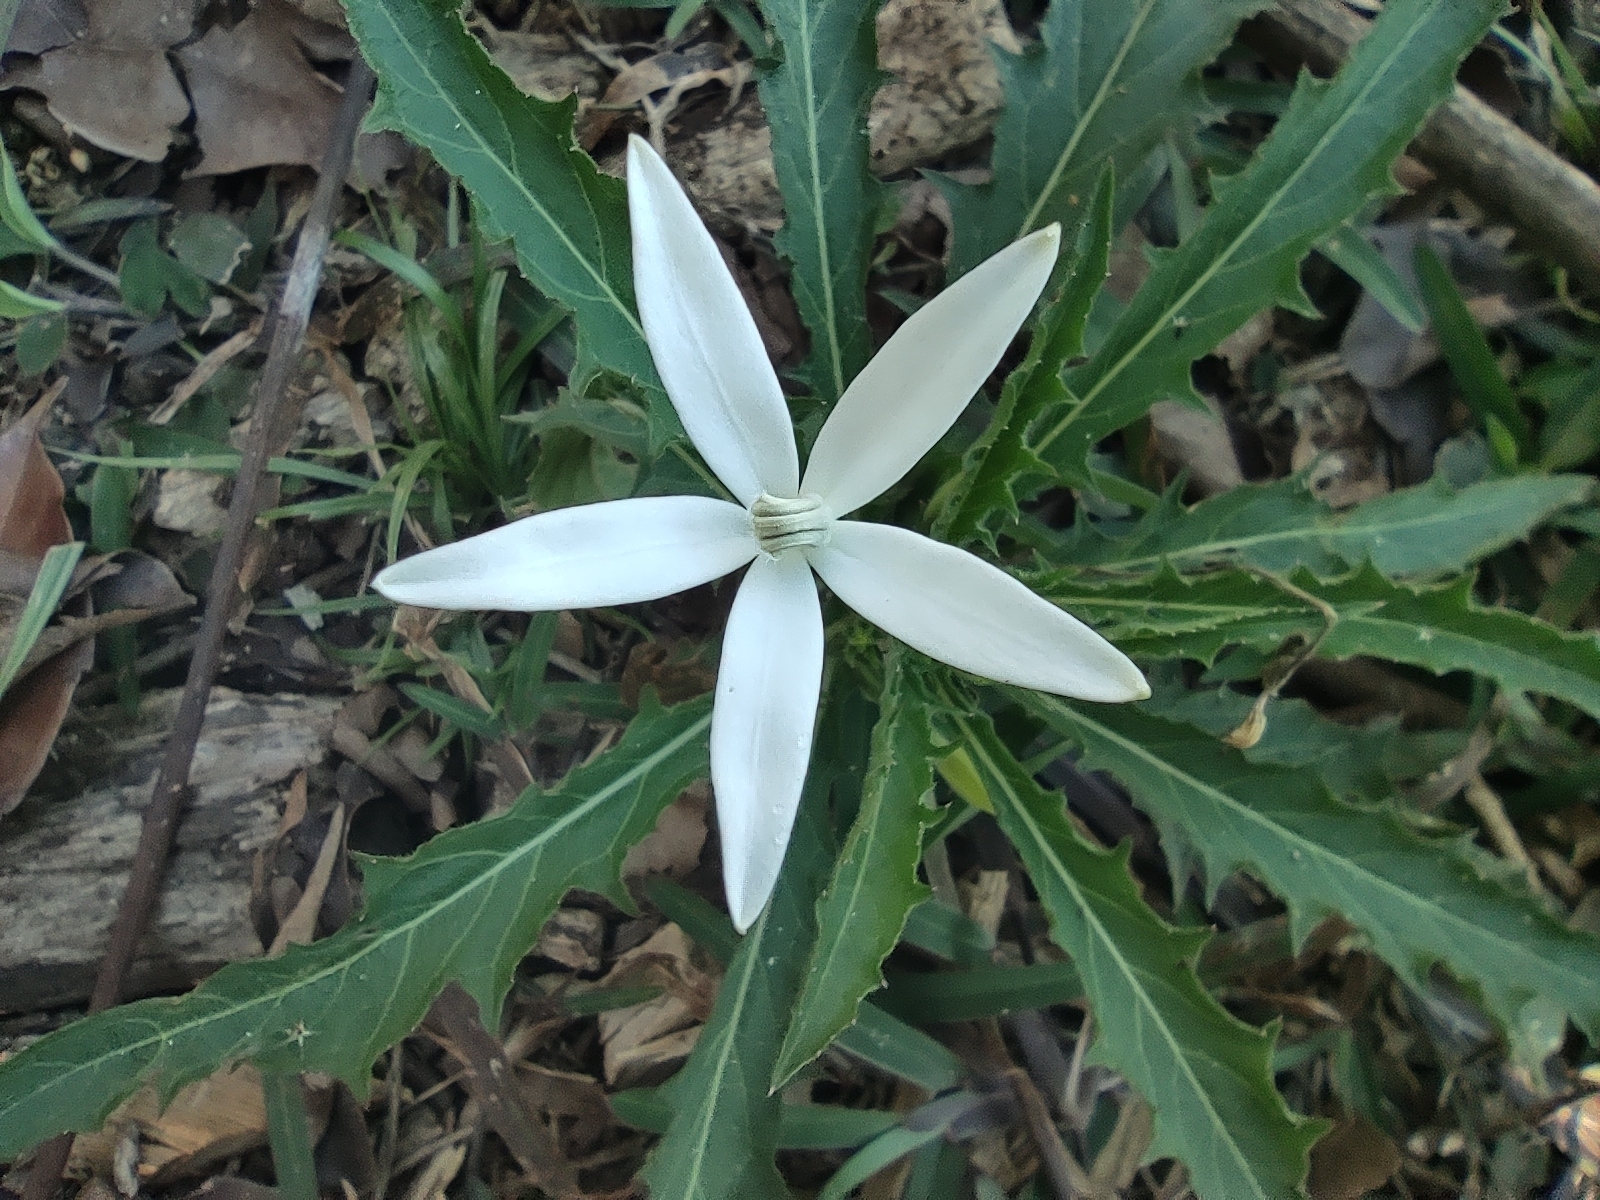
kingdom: Plantae
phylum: Tracheophyta
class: Magnoliopsida
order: Asterales
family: Campanulaceae
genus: Hippobroma
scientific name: Hippobroma longiflora
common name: Madamfate
